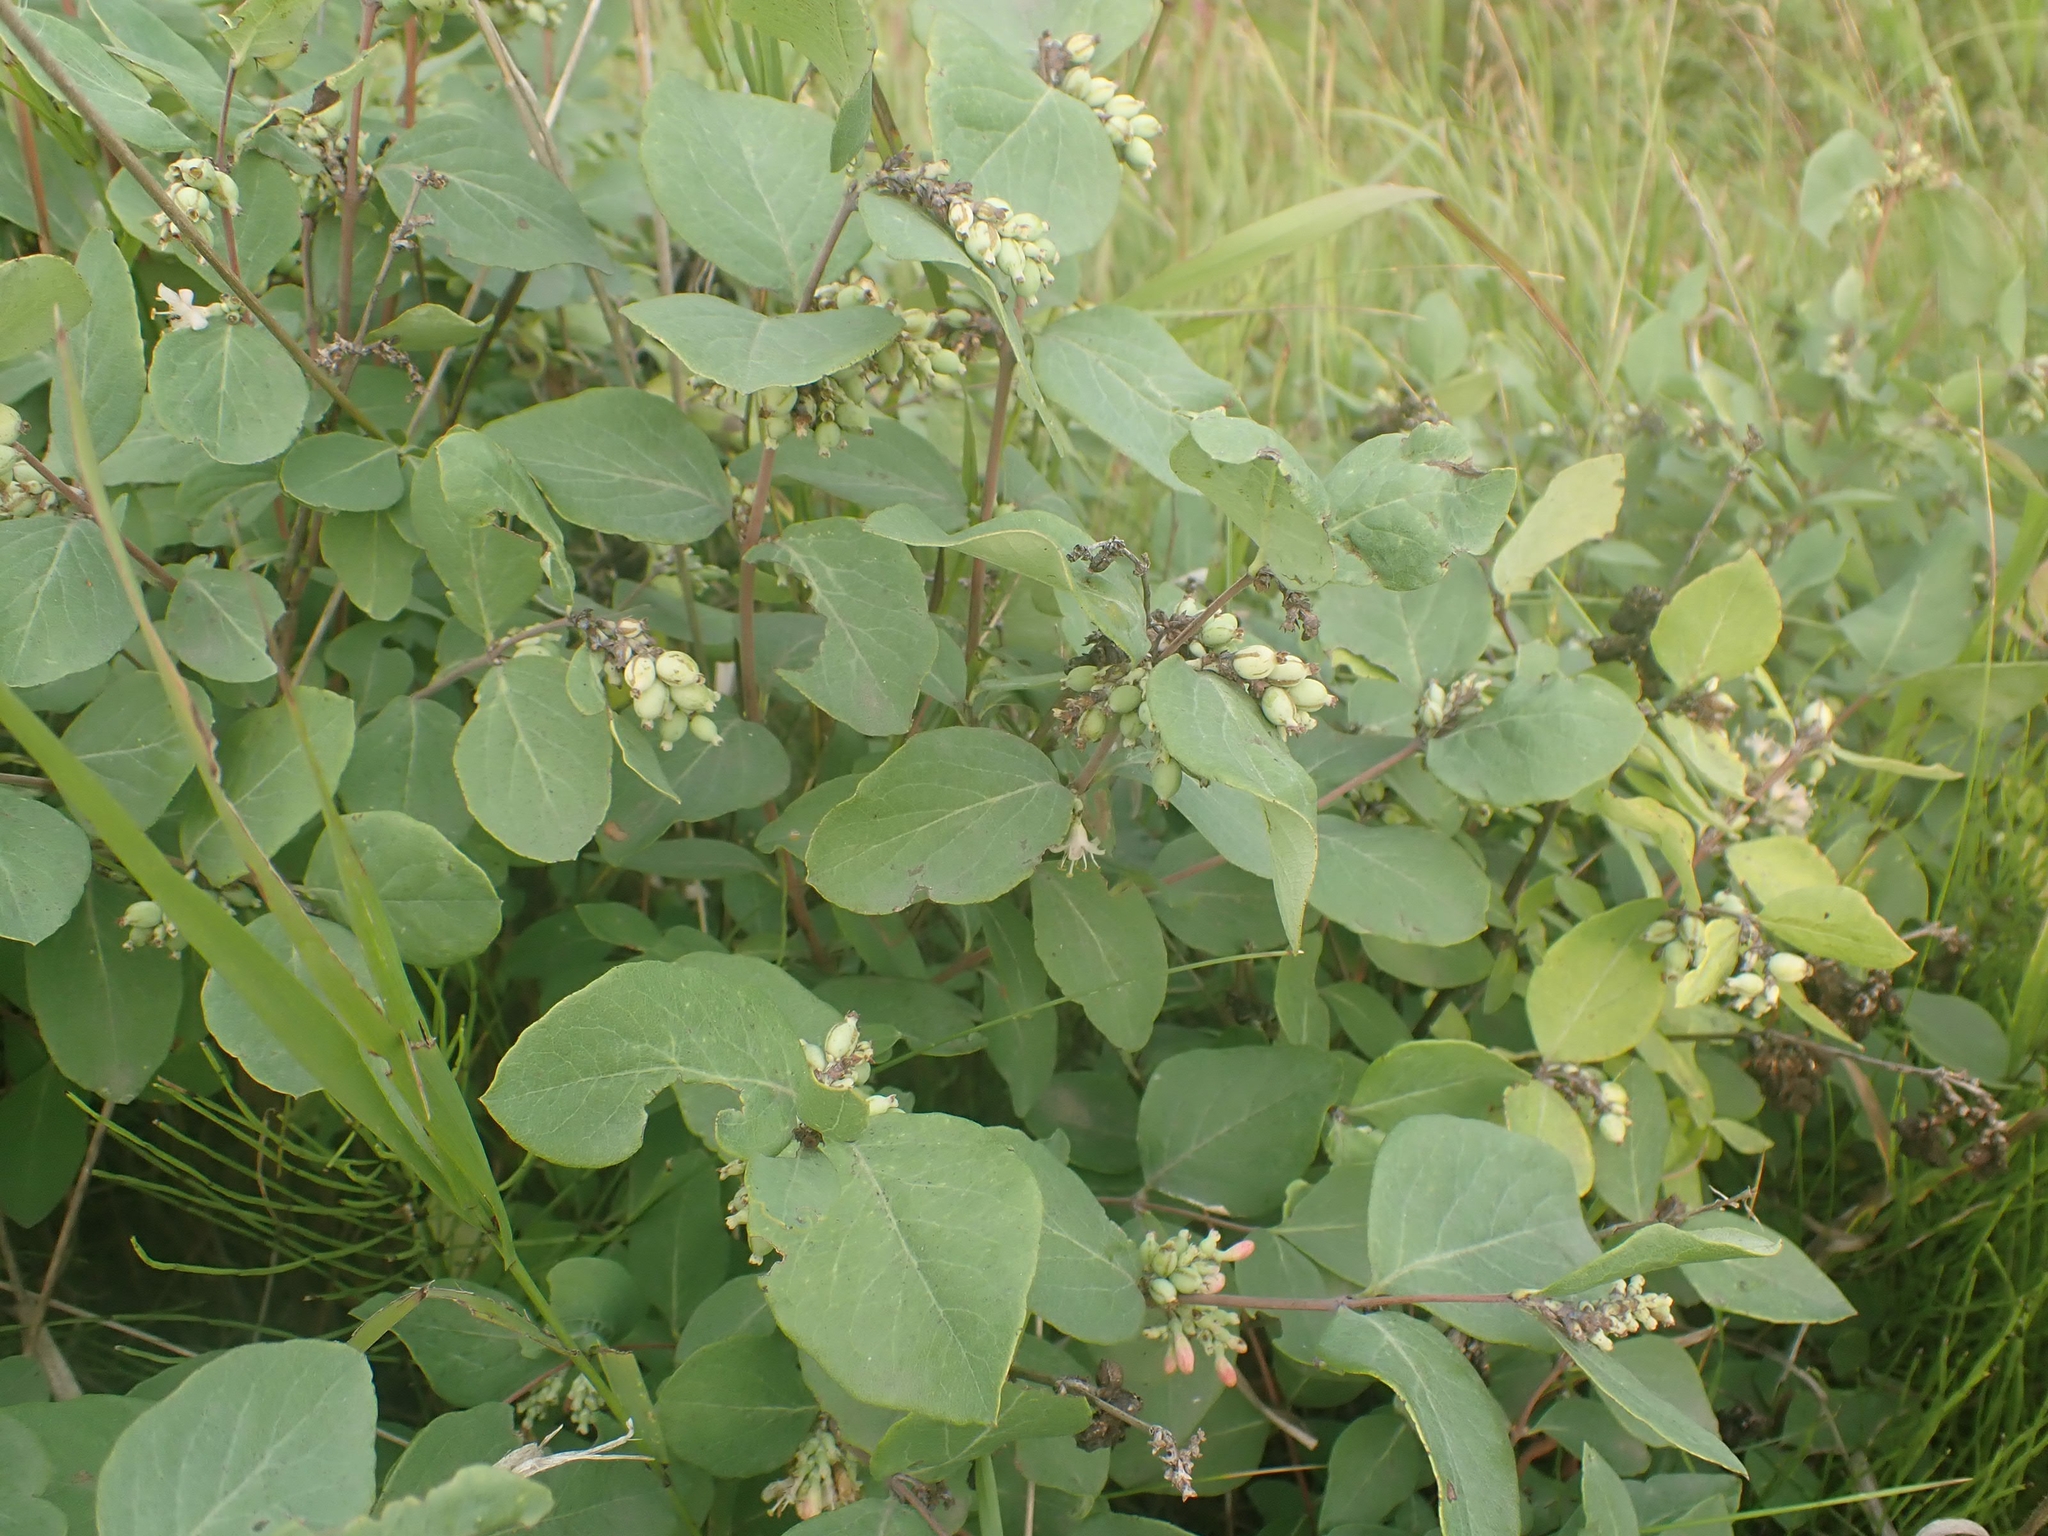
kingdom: Plantae
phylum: Tracheophyta
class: Magnoliopsida
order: Dipsacales
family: Caprifoliaceae
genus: Symphoricarpos
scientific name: Symphoricarpos occidentalis
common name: Wolfberry
